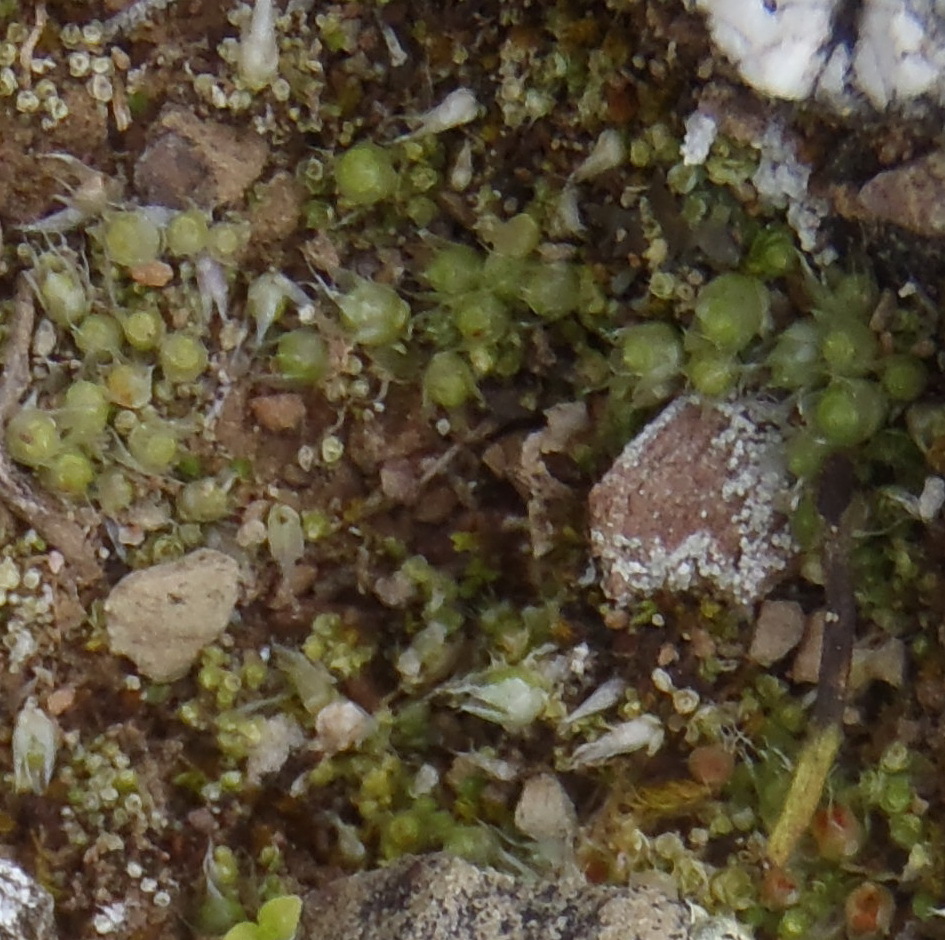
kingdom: Plantae
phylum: Bryophyta
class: Bryopsida
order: Gigaspermales
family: Gigaspermaceae
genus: Gigaspermum
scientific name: Gigaspermum repens
